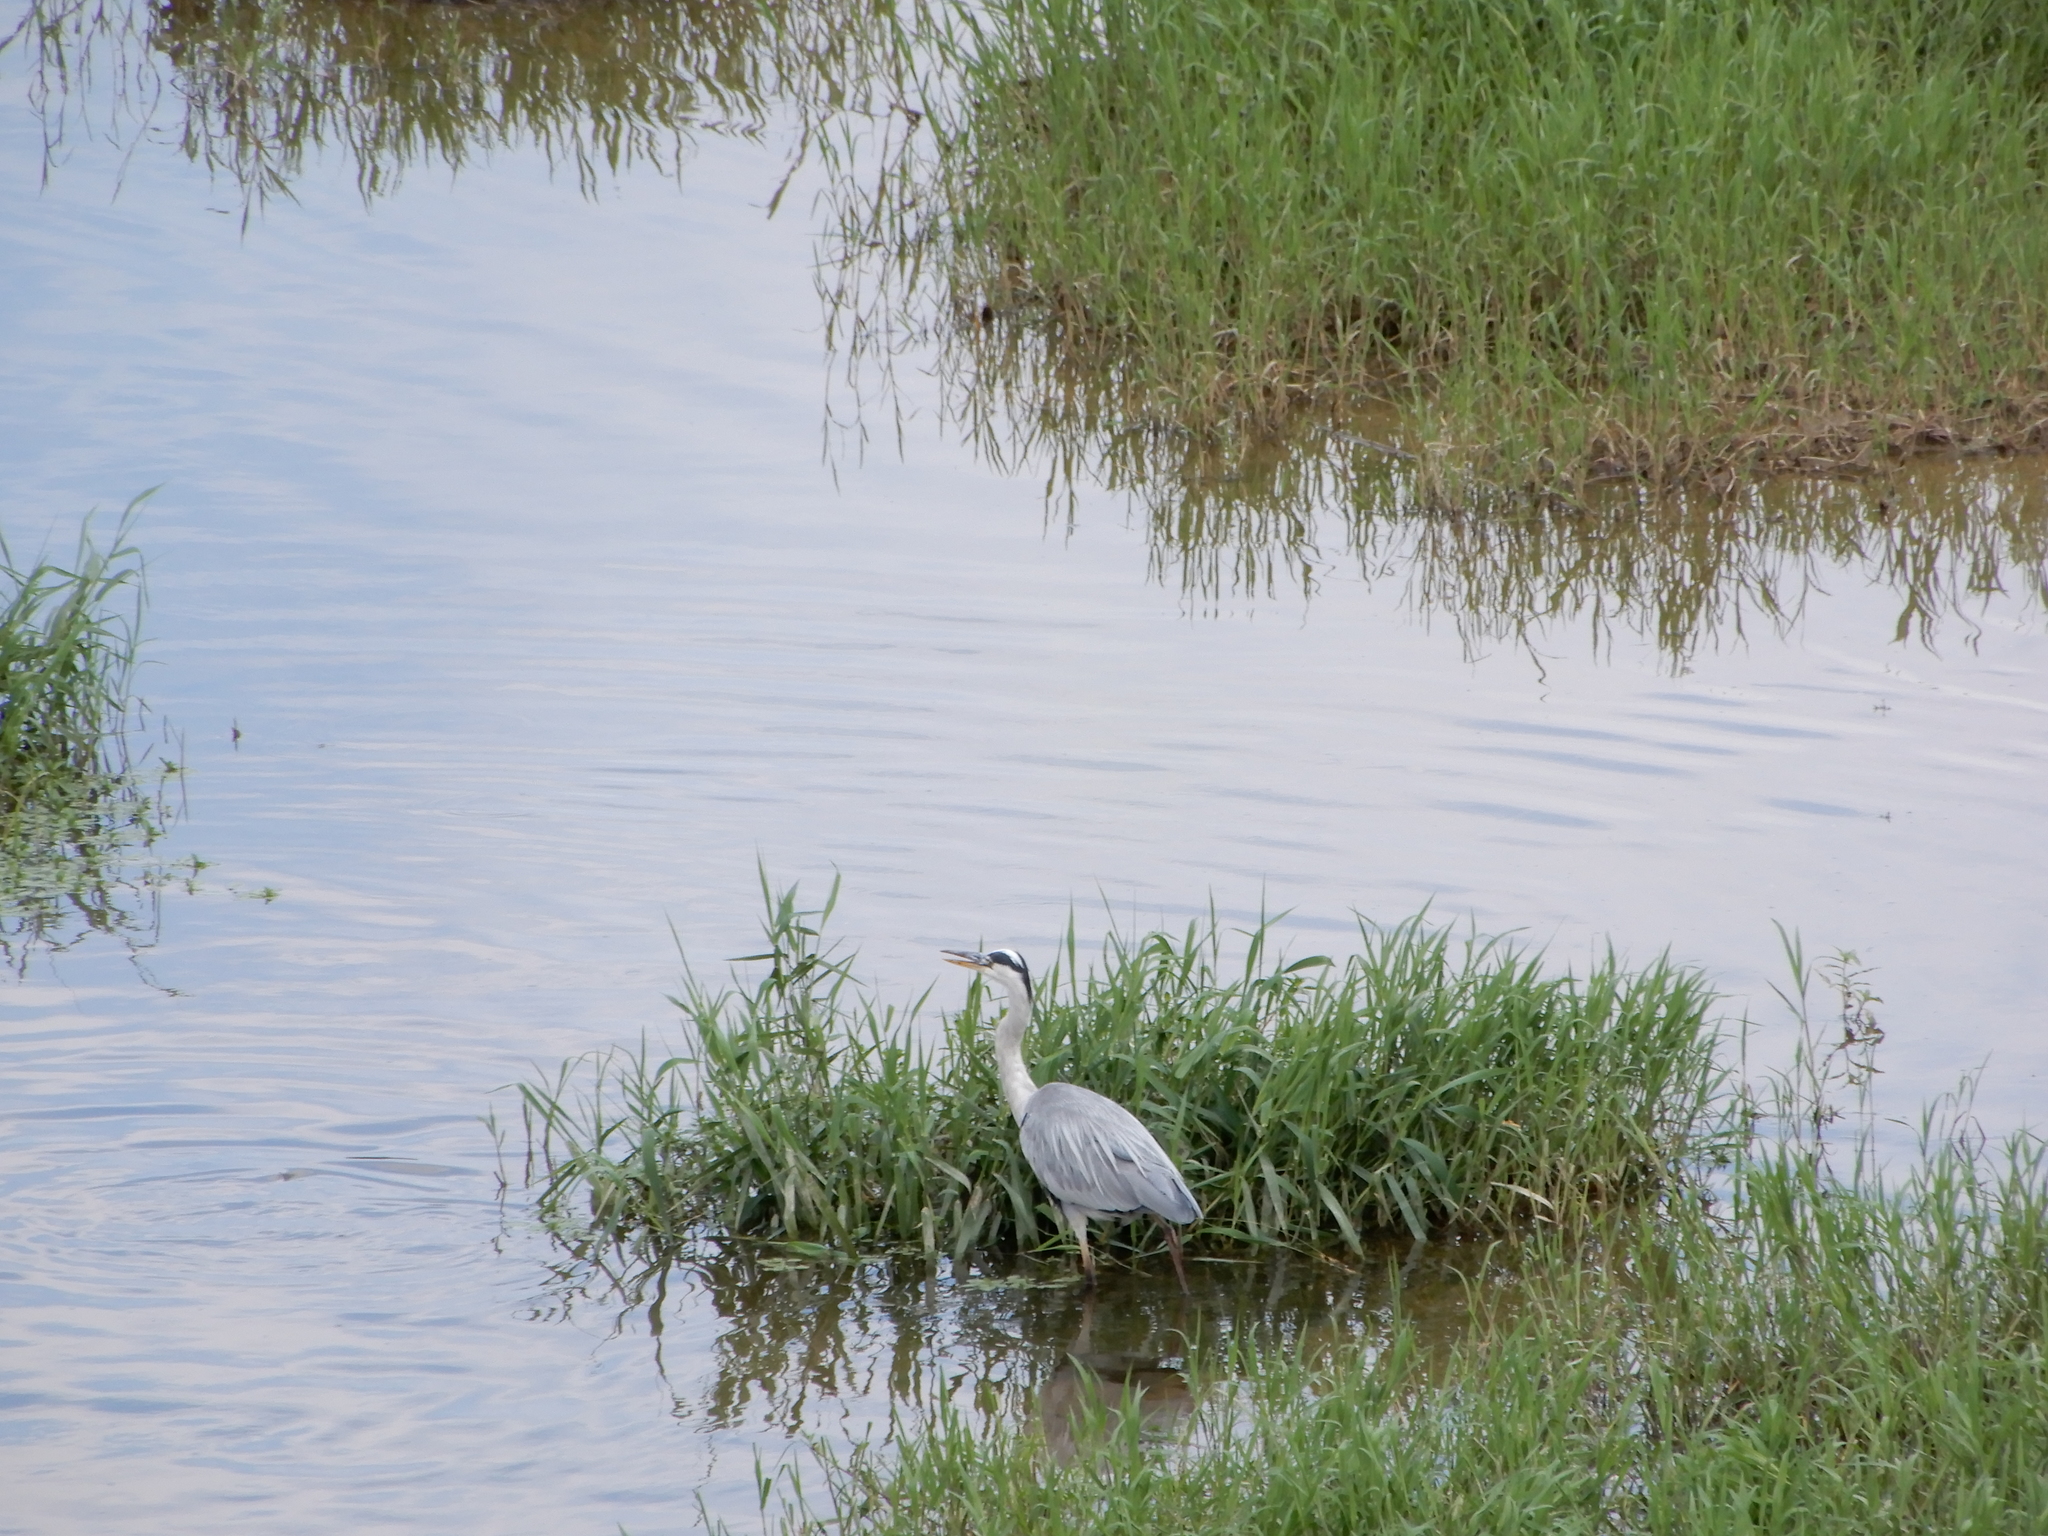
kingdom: Animalia
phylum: Chordata
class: Aves
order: Pelecaniformes
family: Ardeidae
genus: Ardea
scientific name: Ardea cinerea
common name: Grey heron
